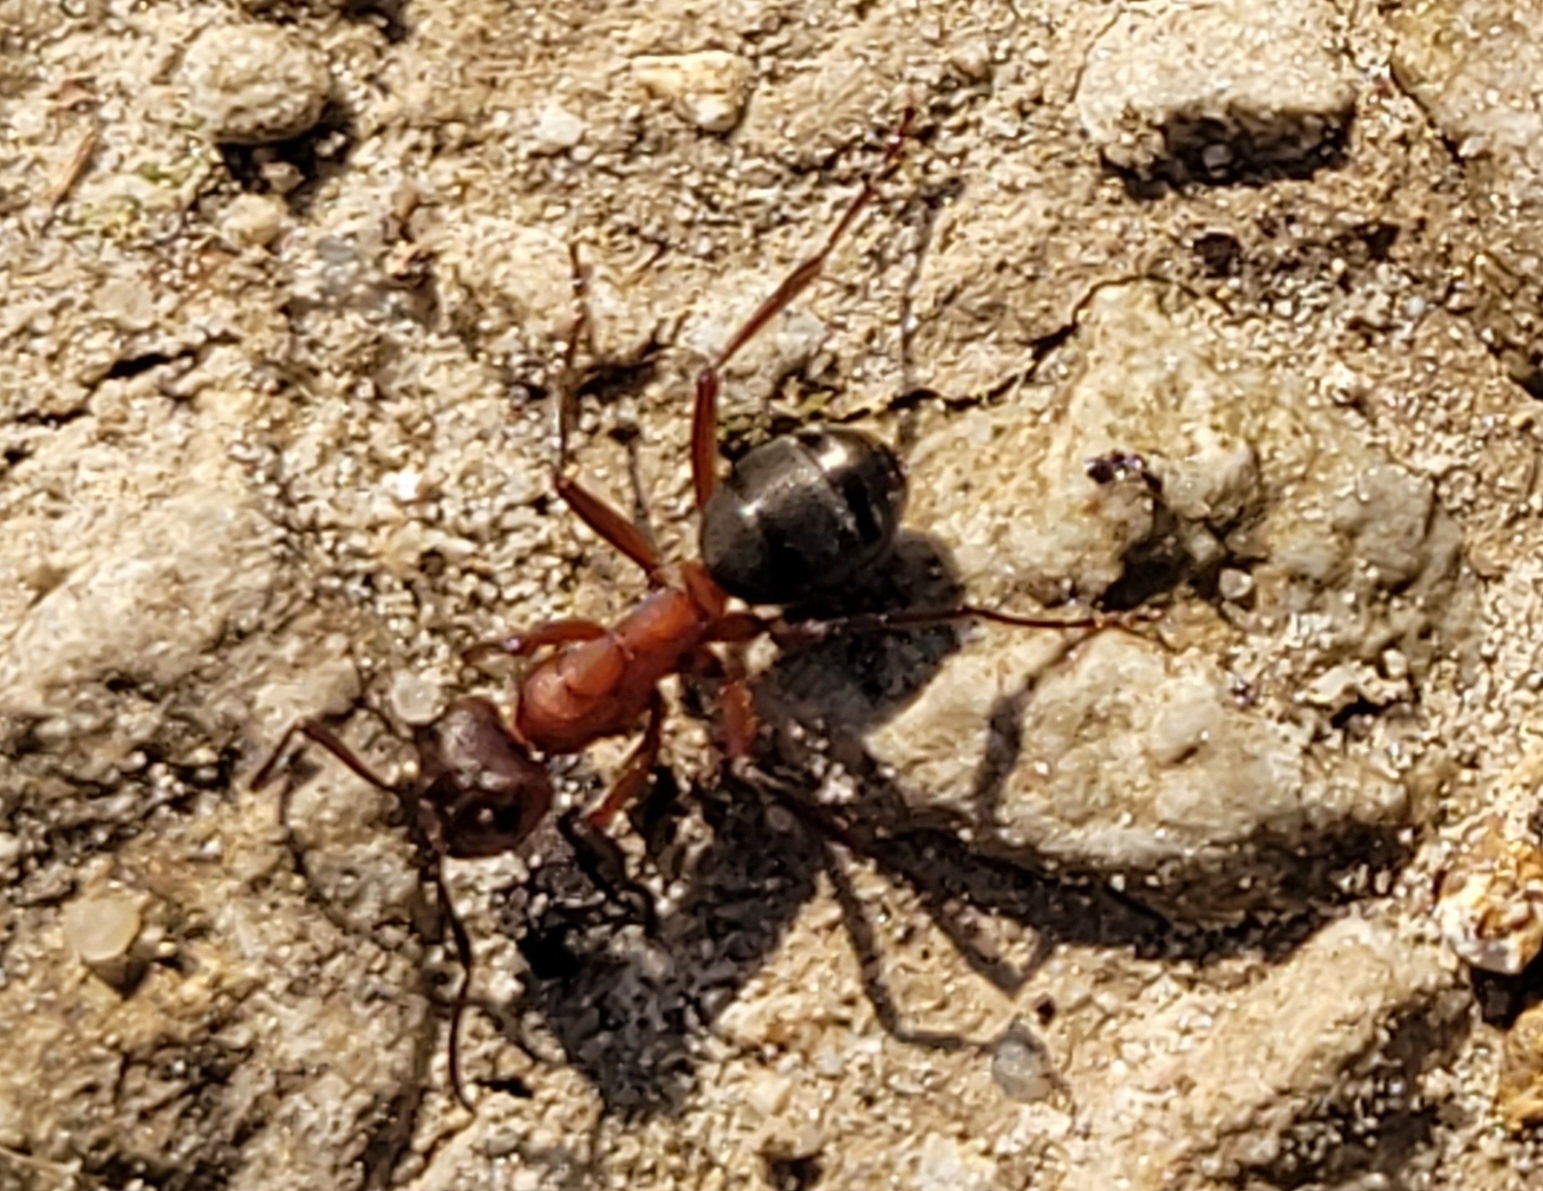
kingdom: Animalia
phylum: Arthropoda
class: Insecta
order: Hymenoptera
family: Formicidae
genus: Formica
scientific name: Formica sanguinea
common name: Blood-red ant
